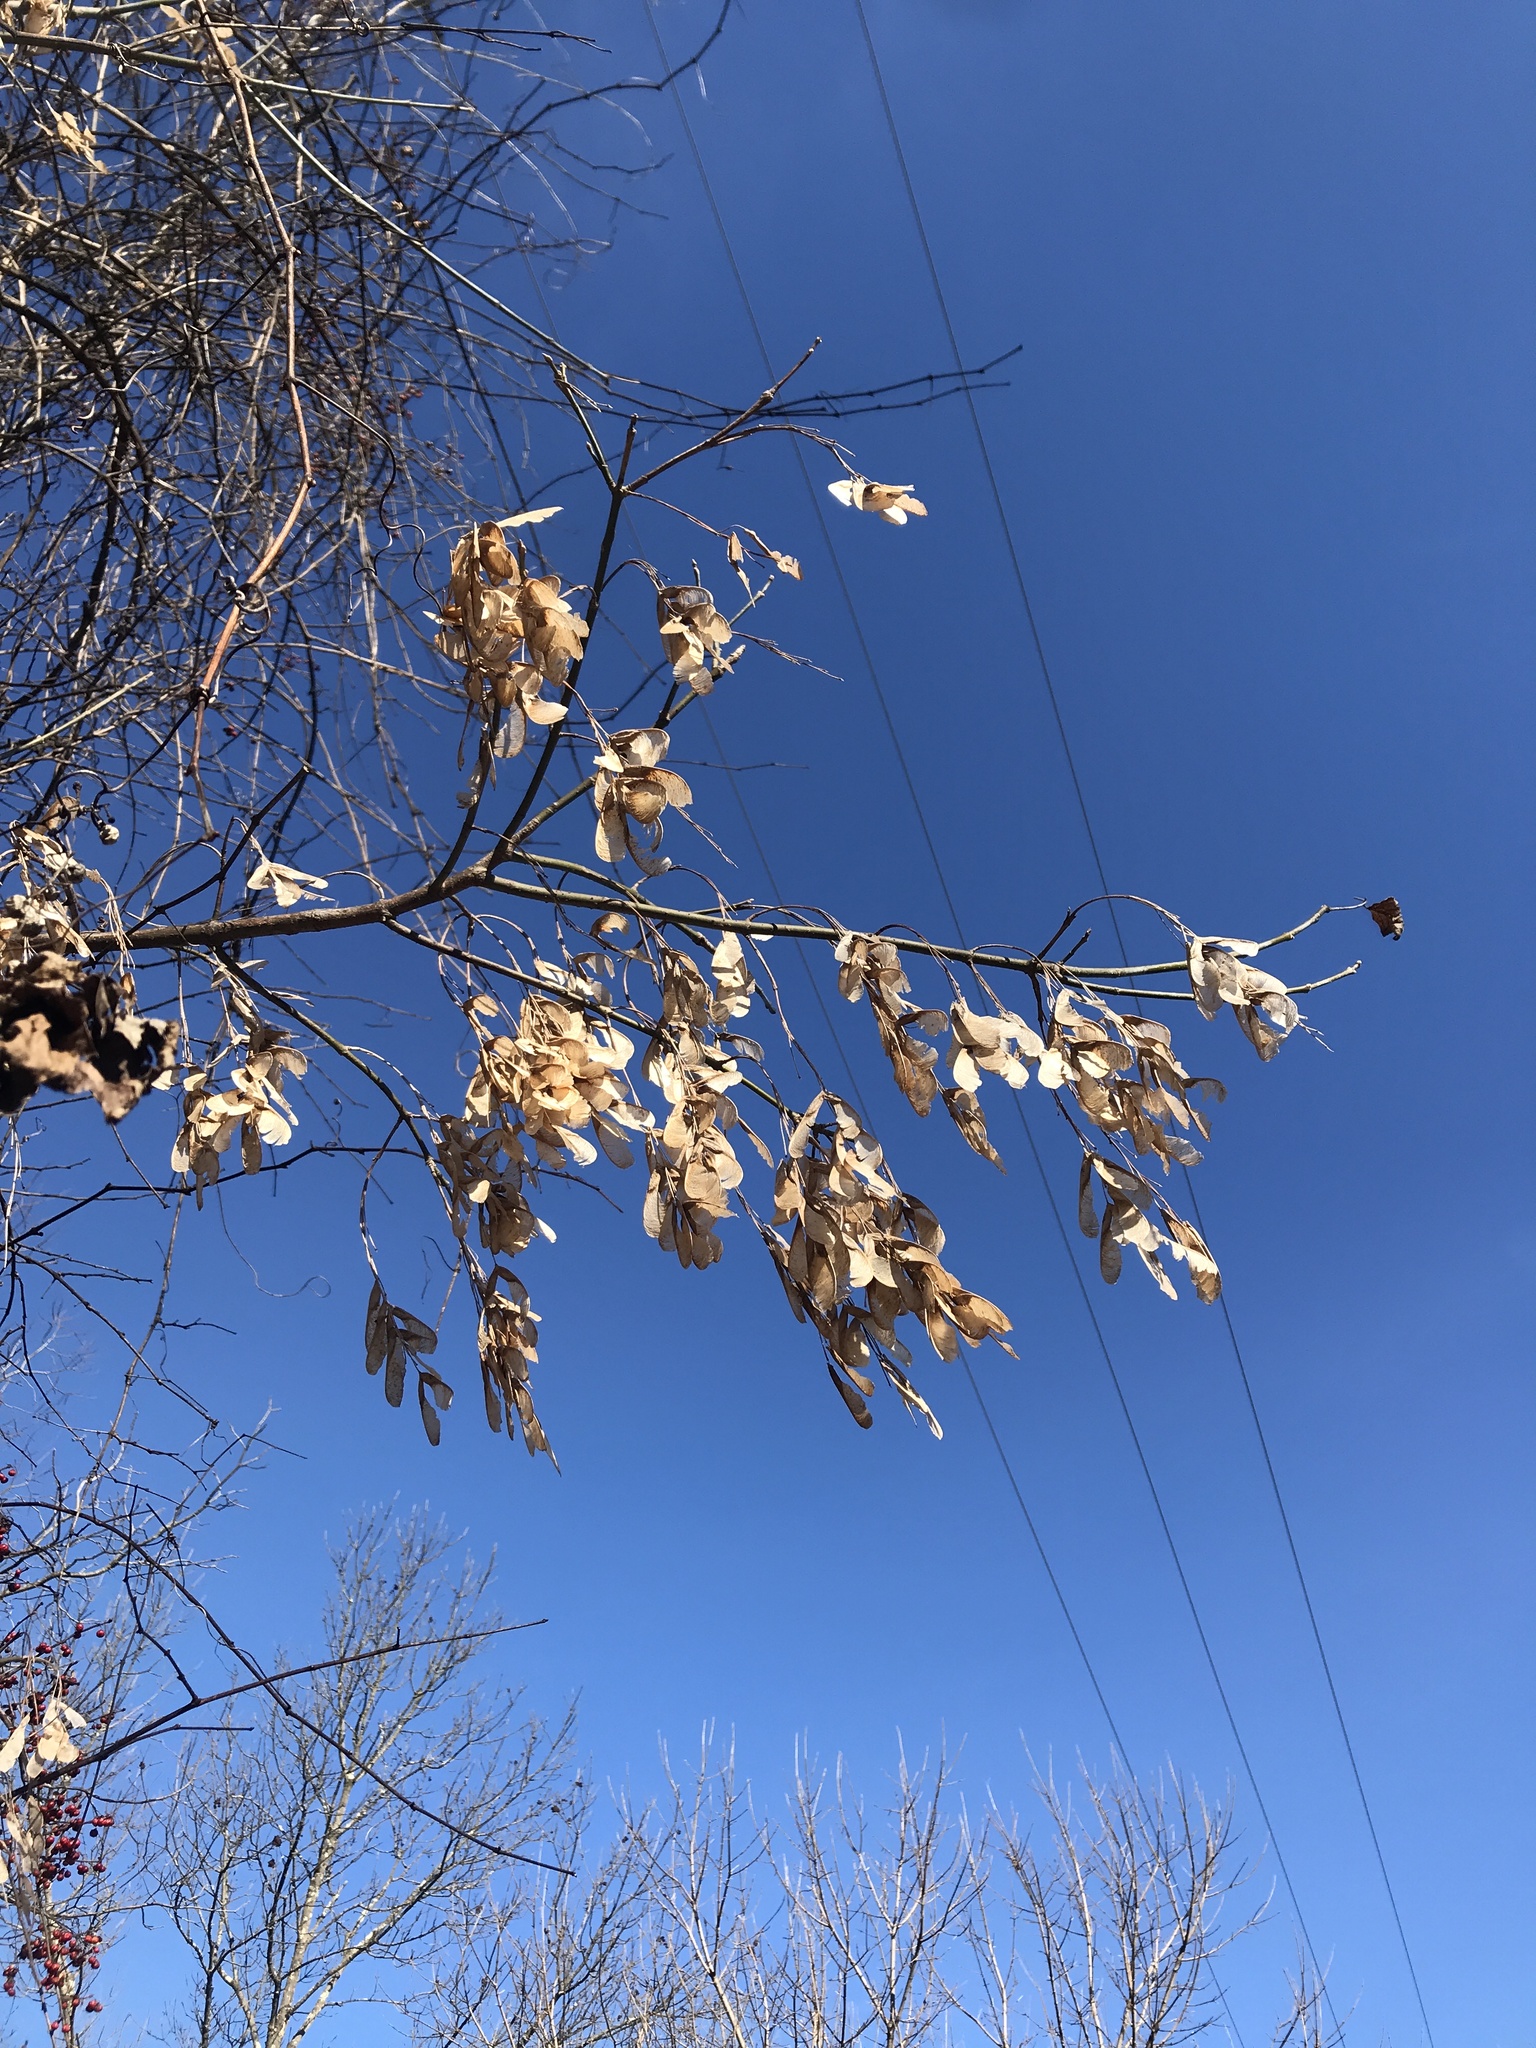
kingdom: Plantae
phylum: Tracheophyta
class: Magnoliopsida
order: Sapindales
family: Sapindaceae
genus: Acer
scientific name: Acer negundo
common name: Ashleaf maple
